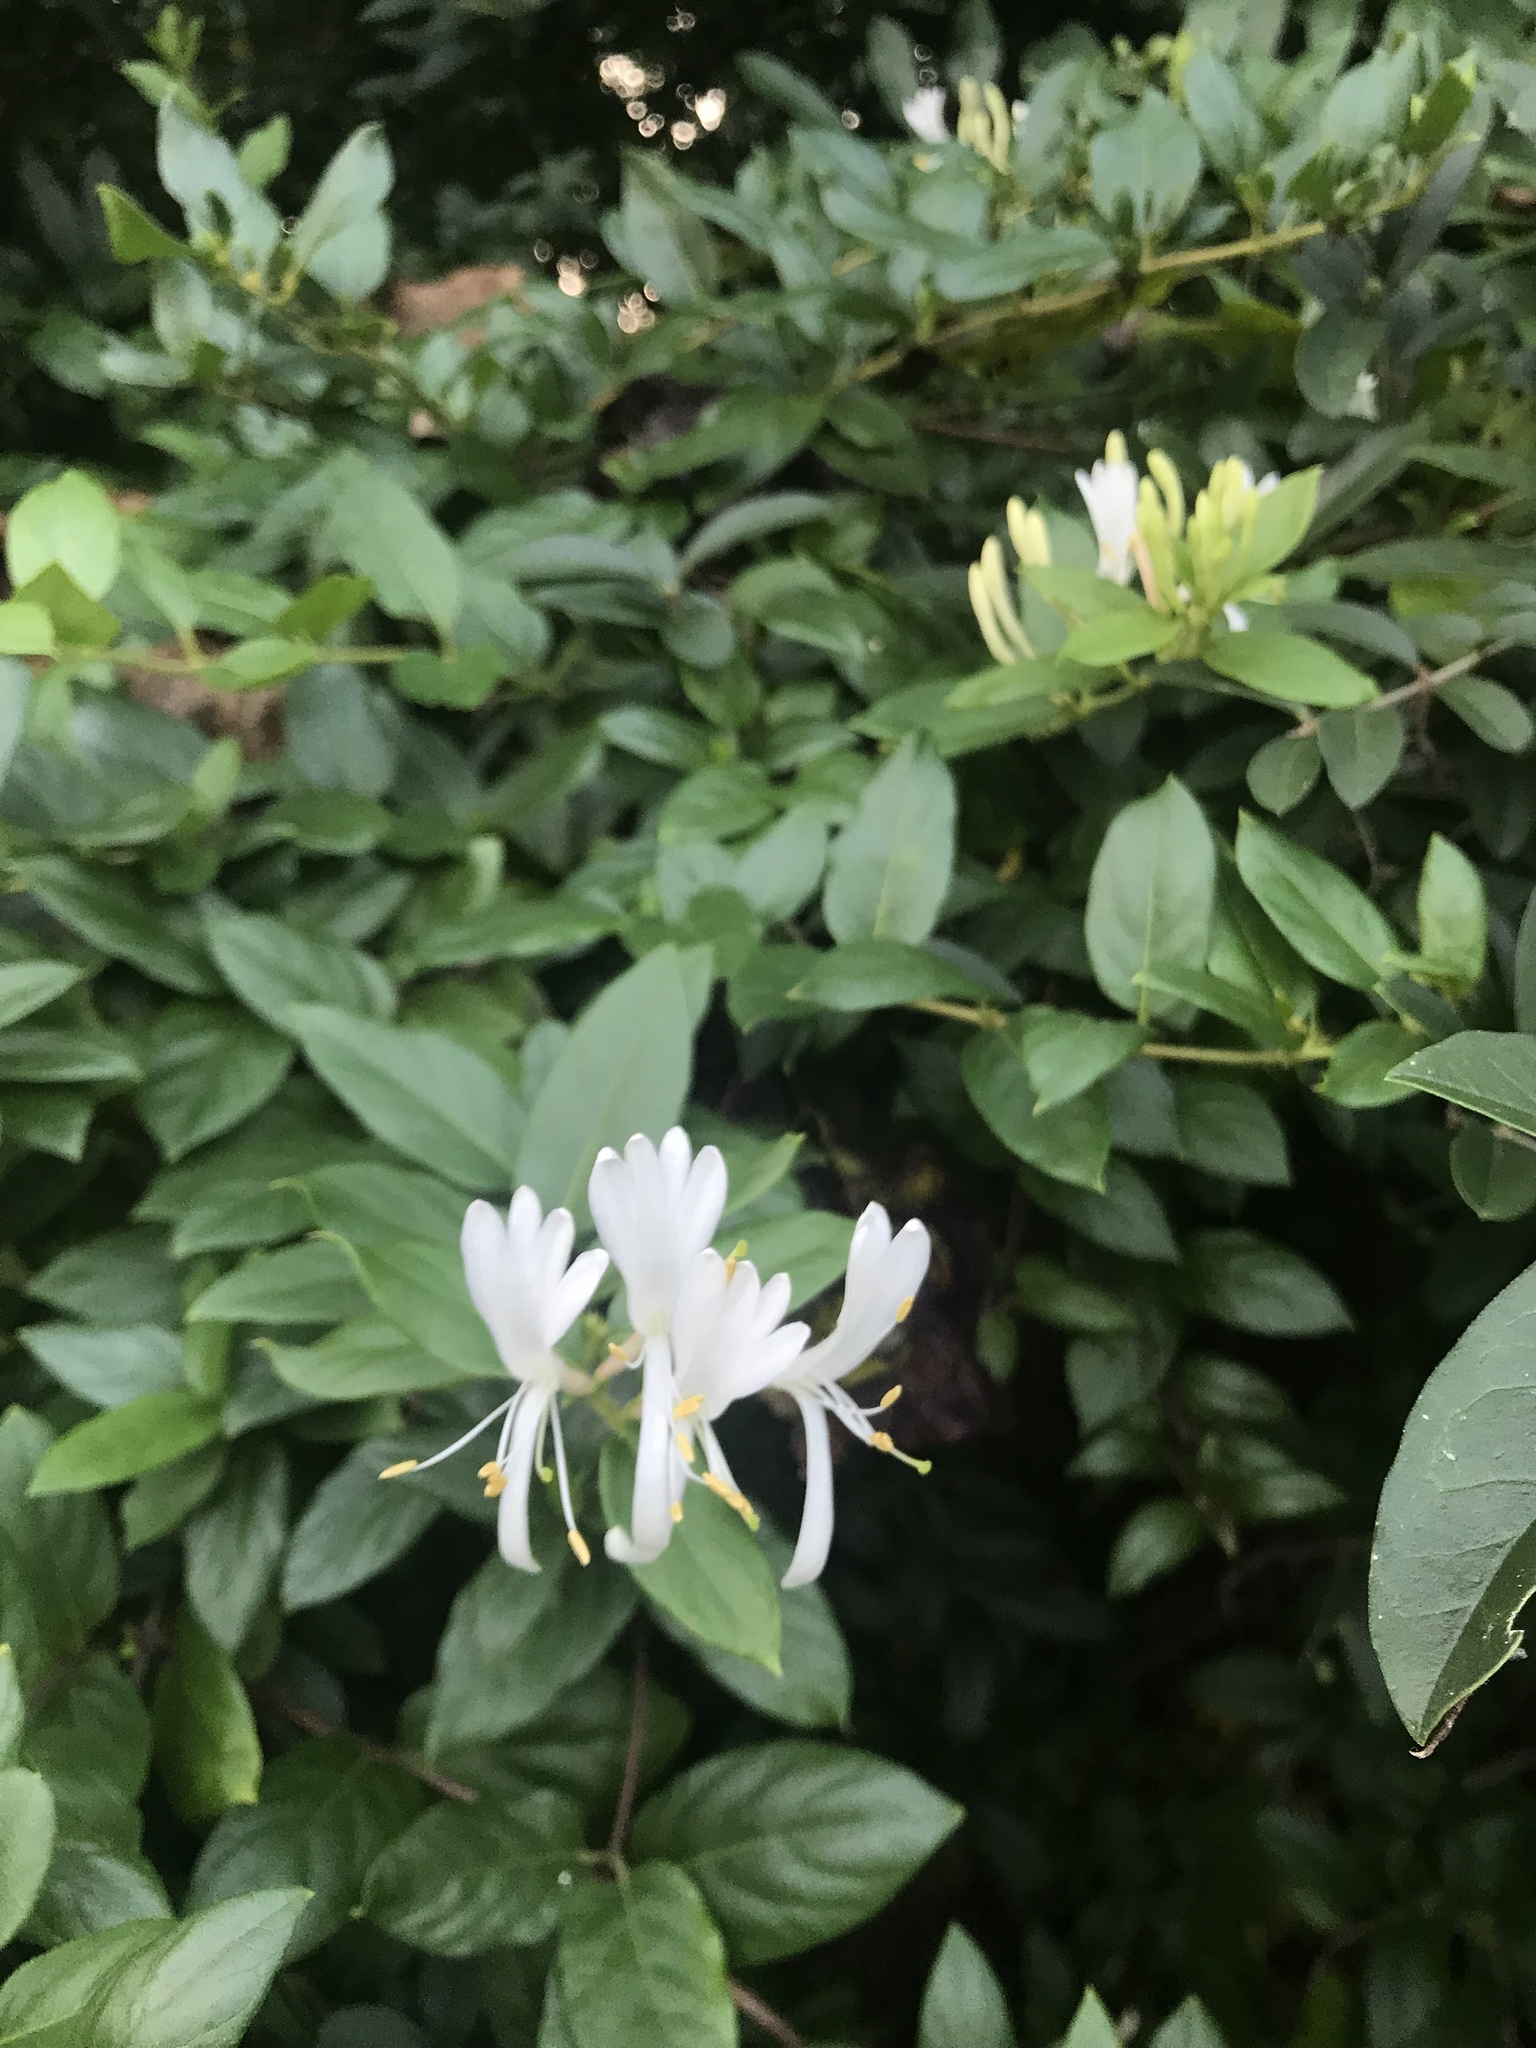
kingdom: Plantae
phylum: Tracheophyta
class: Magnoliopsida
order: Dipsacales
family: Caprifoliaceae
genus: Lonicera
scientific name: Lonicera japonica
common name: Japanese honeysuckle
